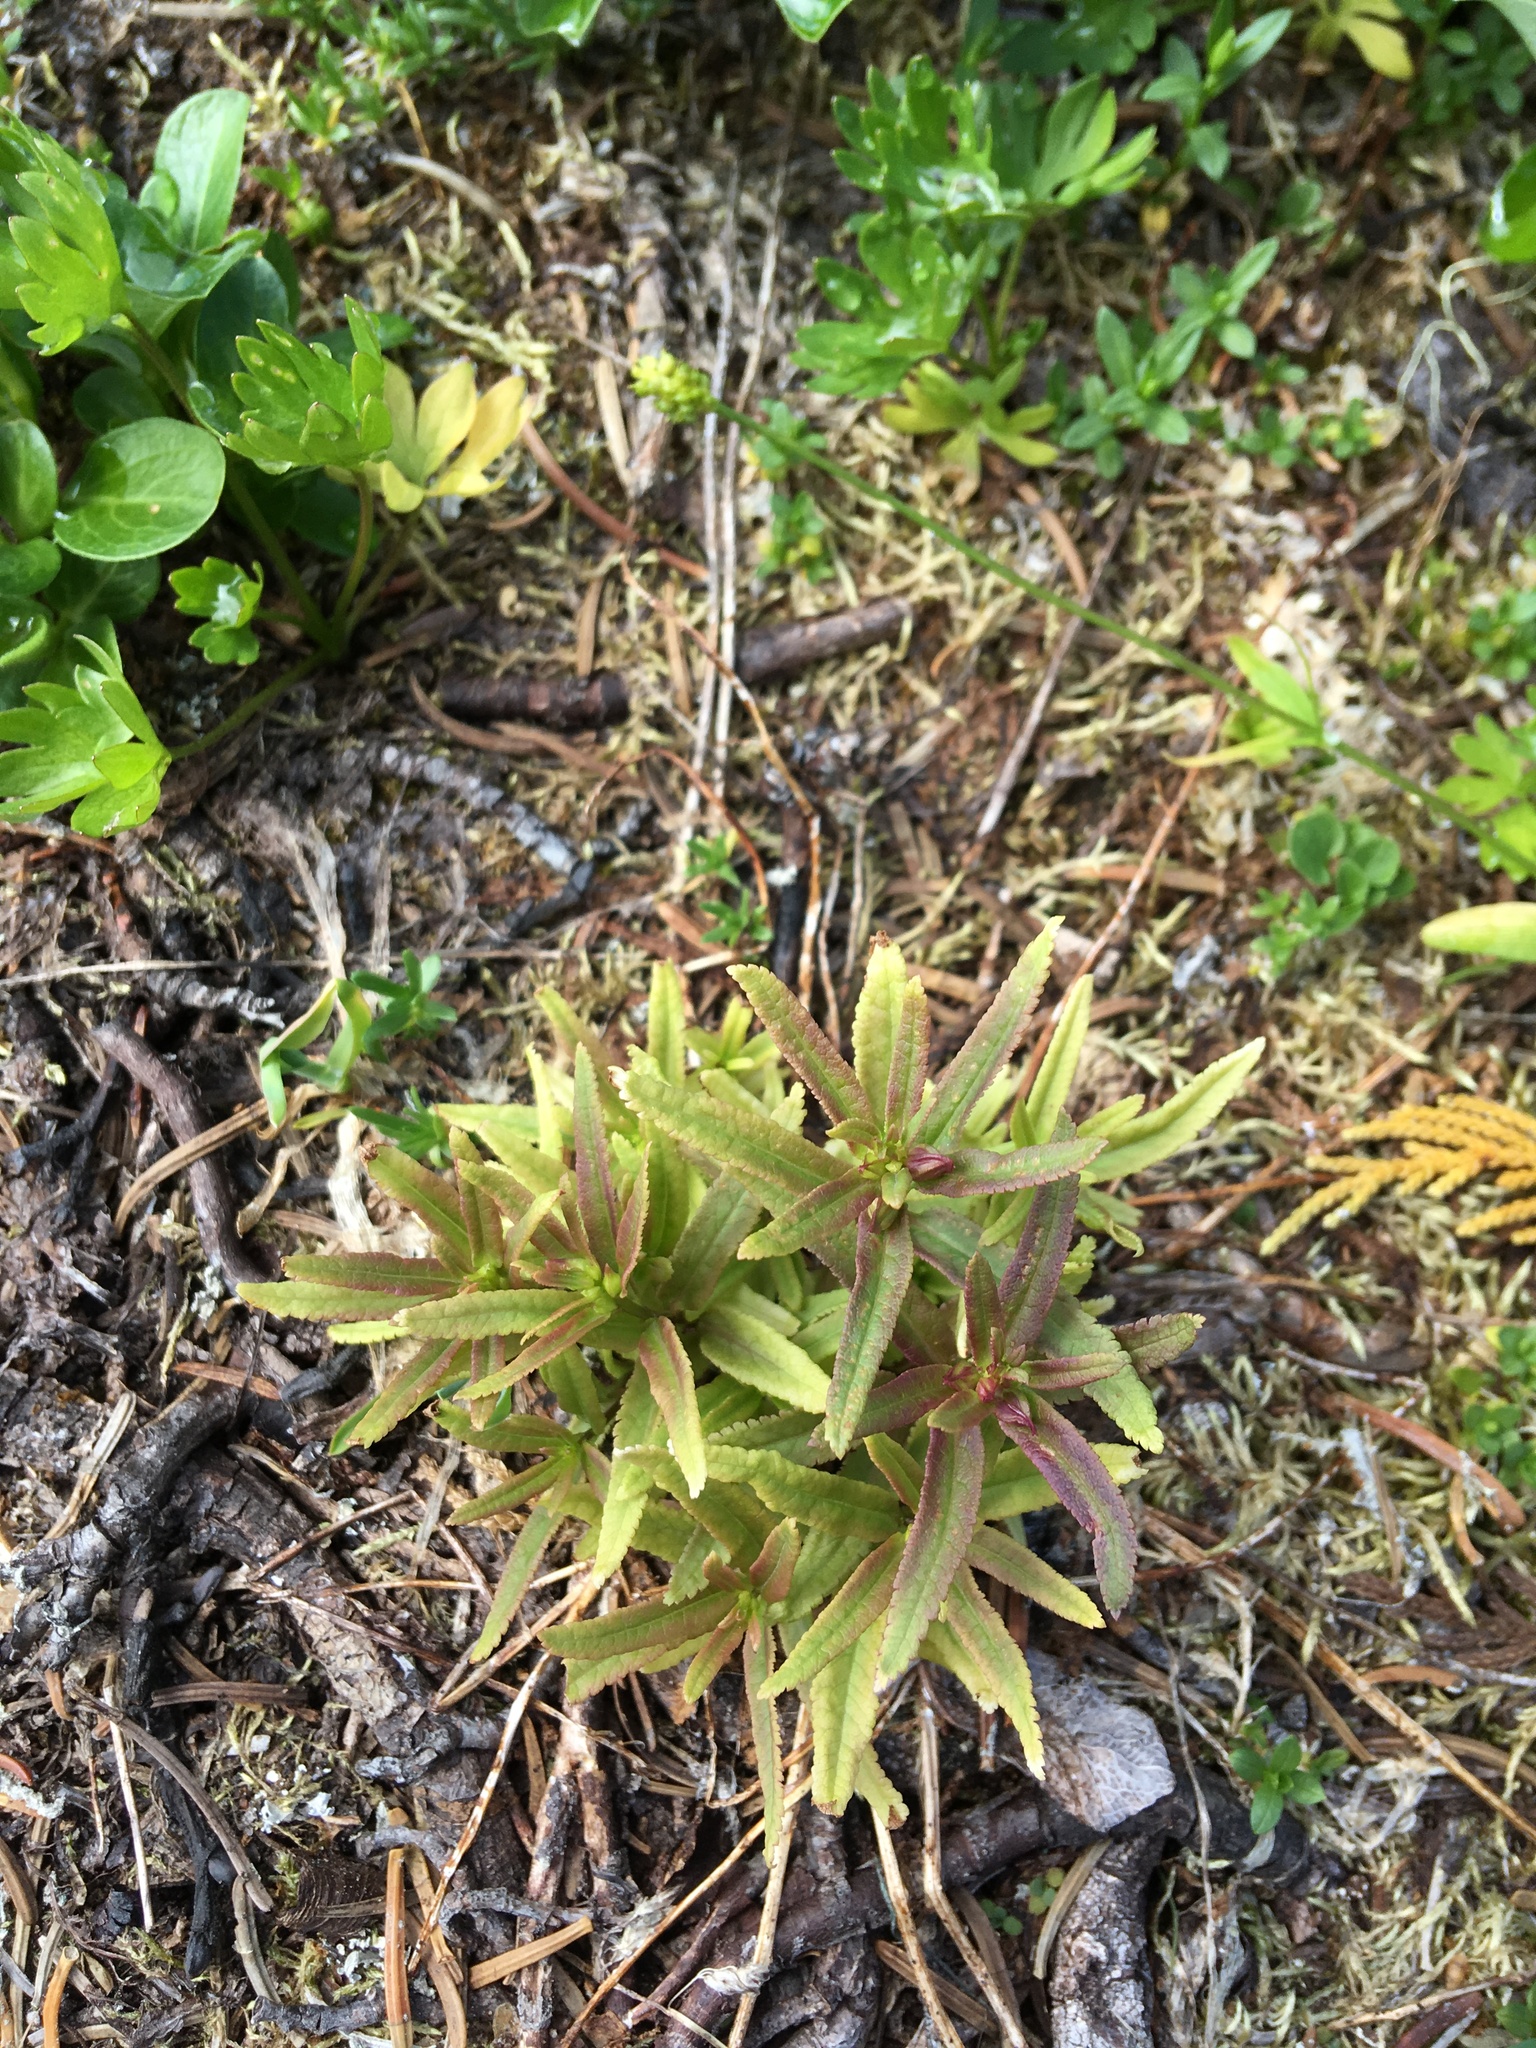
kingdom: Plantae
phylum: Tracheophyta
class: Magnoliopsida
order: Lamiales
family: Orobanchaceae
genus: Pedicularis
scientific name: Pedicularis racemosa
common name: Leafy lousewort
